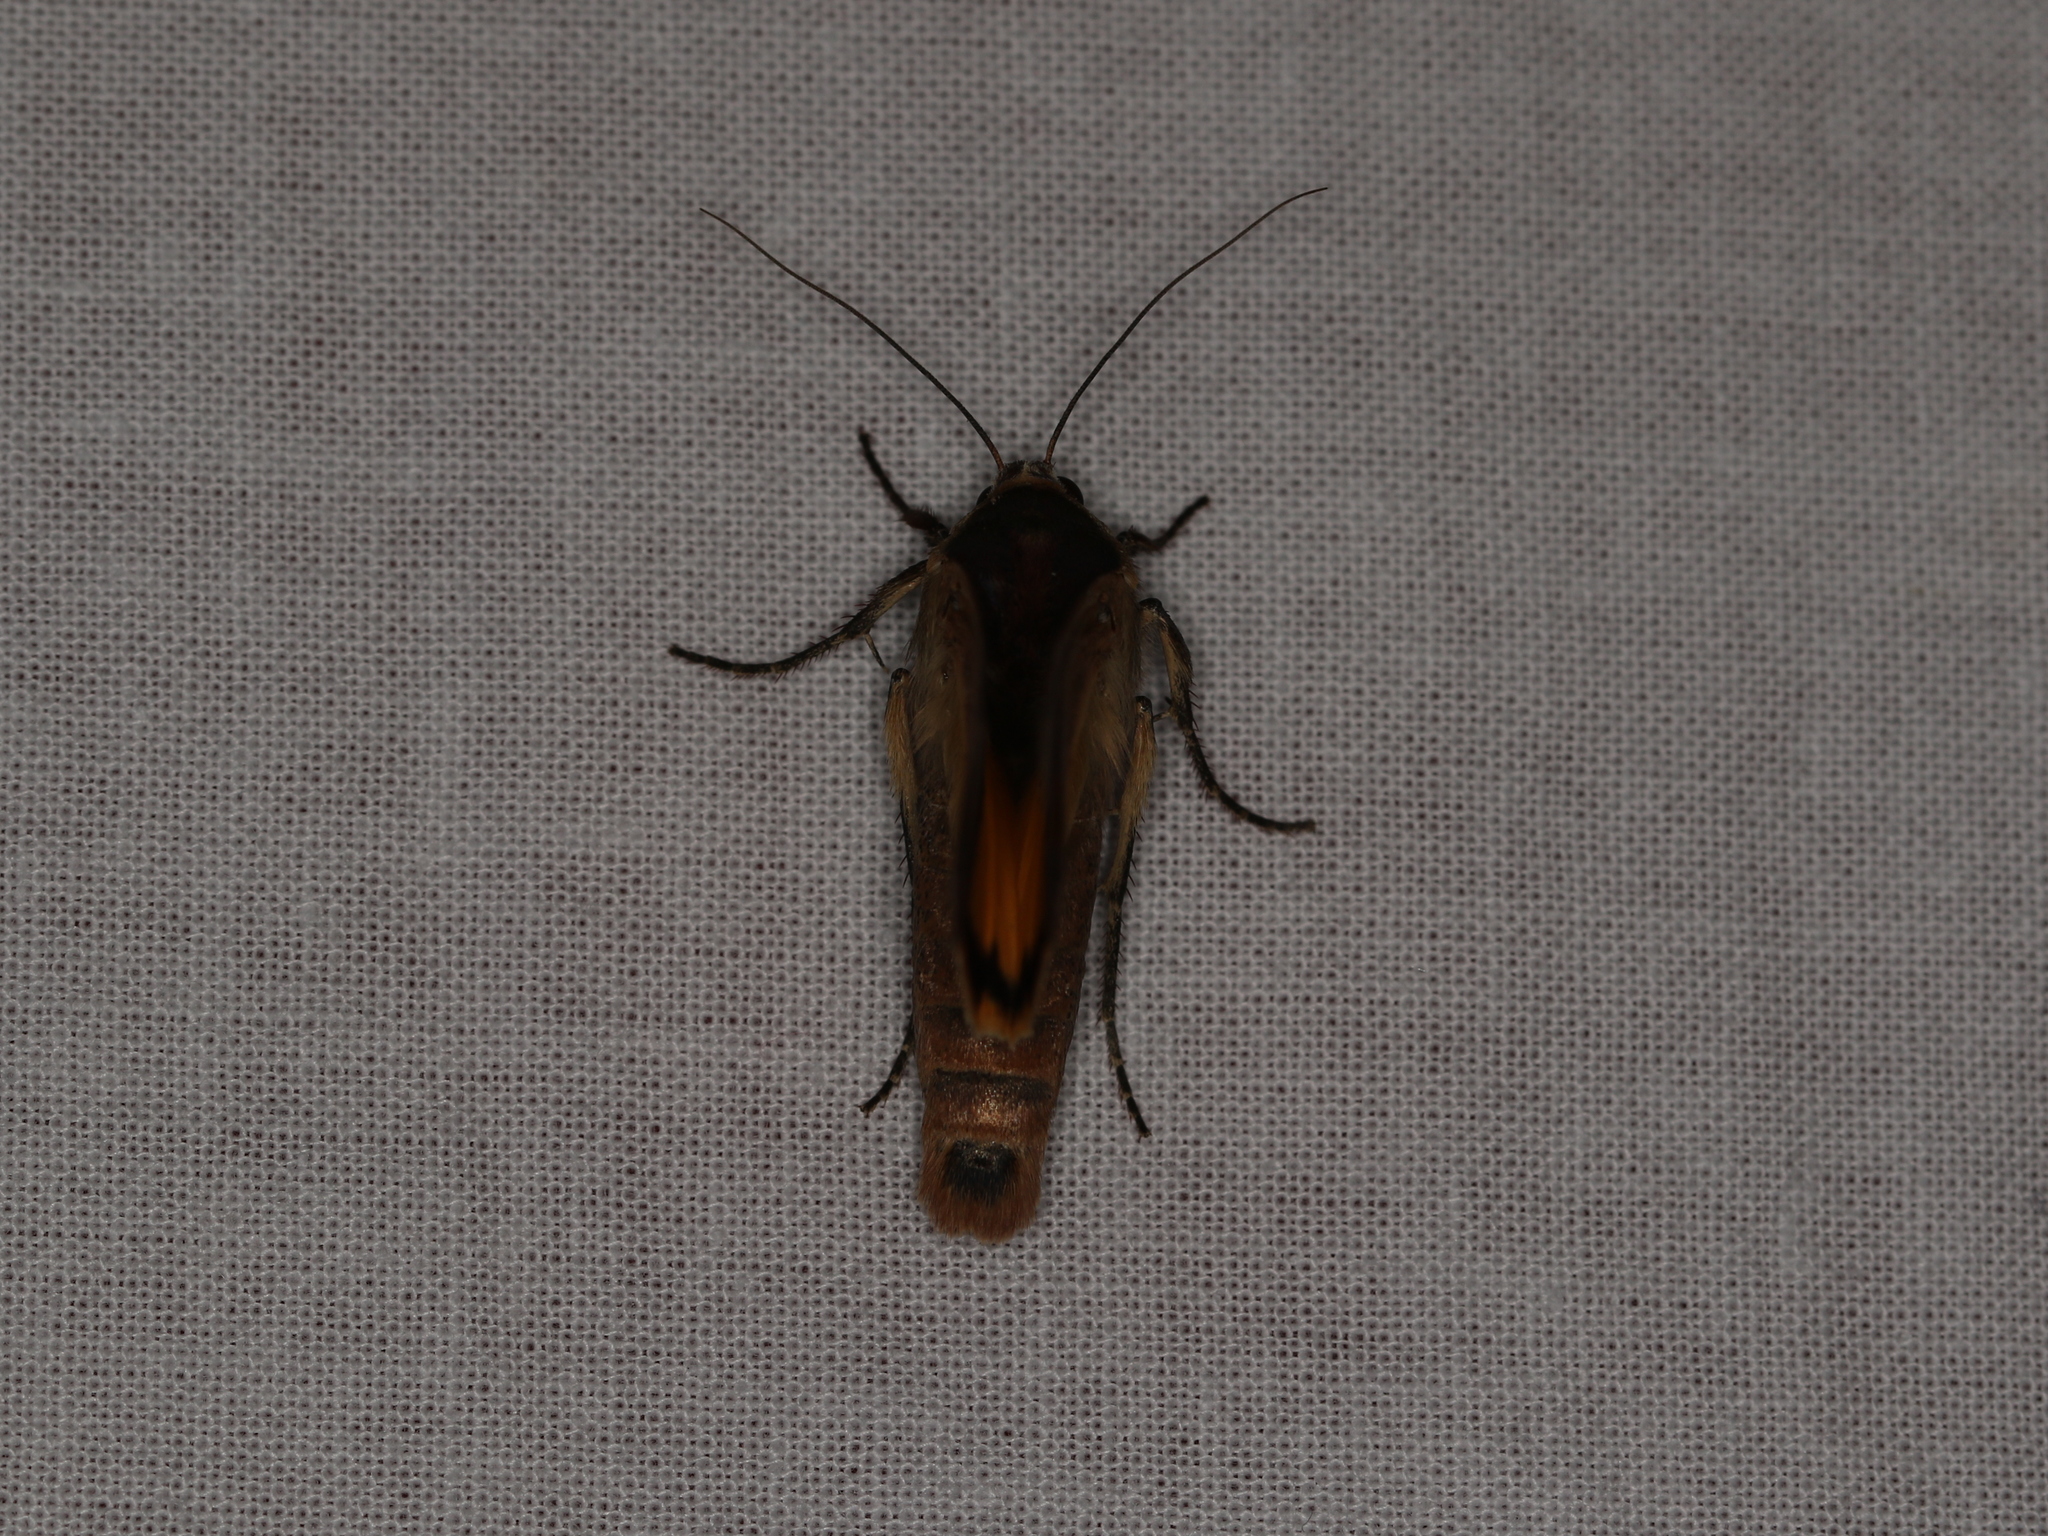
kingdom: Animalia
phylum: Arthropoda
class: Insecta
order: Lepidoptera
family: Noctuidae
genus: Noctua
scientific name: Noctua pronuba
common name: Large yellow underwing
